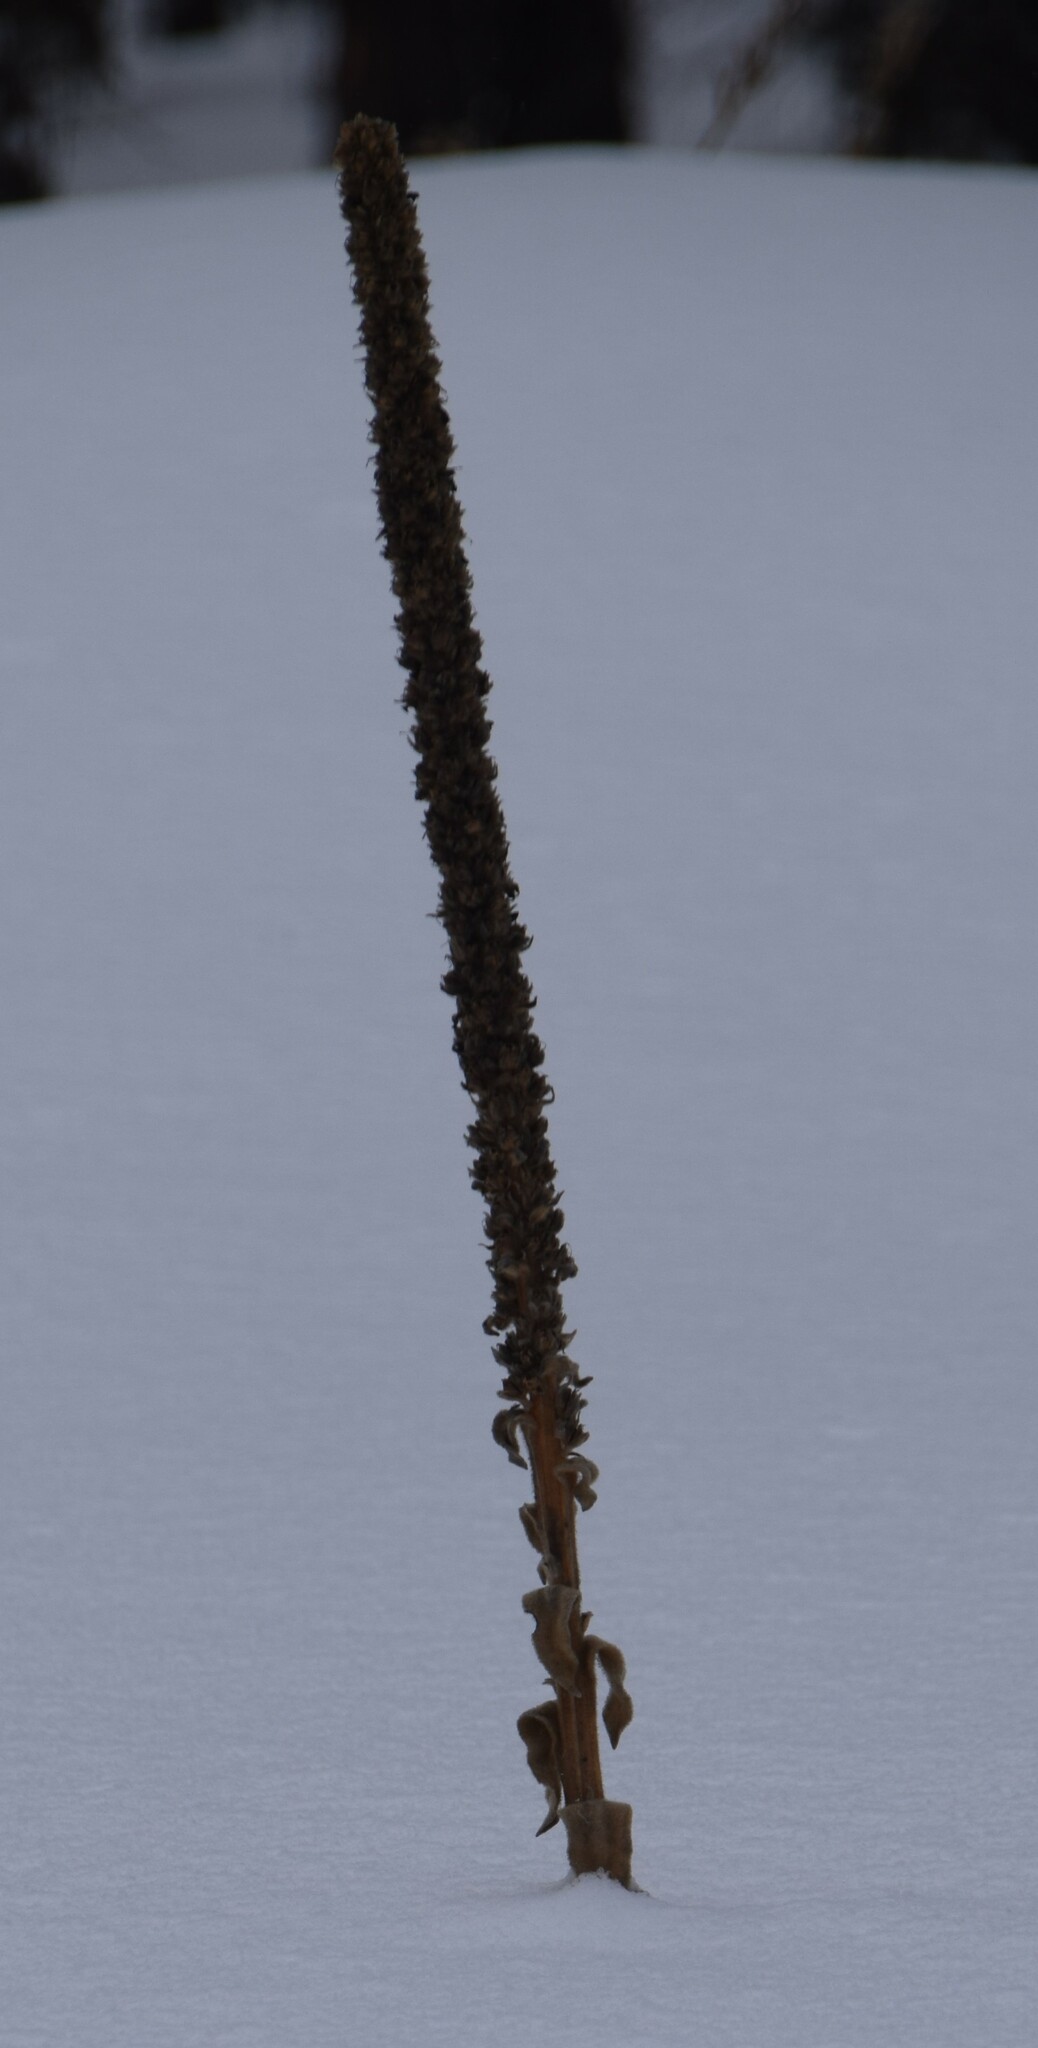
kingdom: Plantae
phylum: Tracheophyta
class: Magnoliopsida
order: Lamiales
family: Scrophulariaceae
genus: Verbascum
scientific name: Verbascum thapsus
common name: Common mullein
